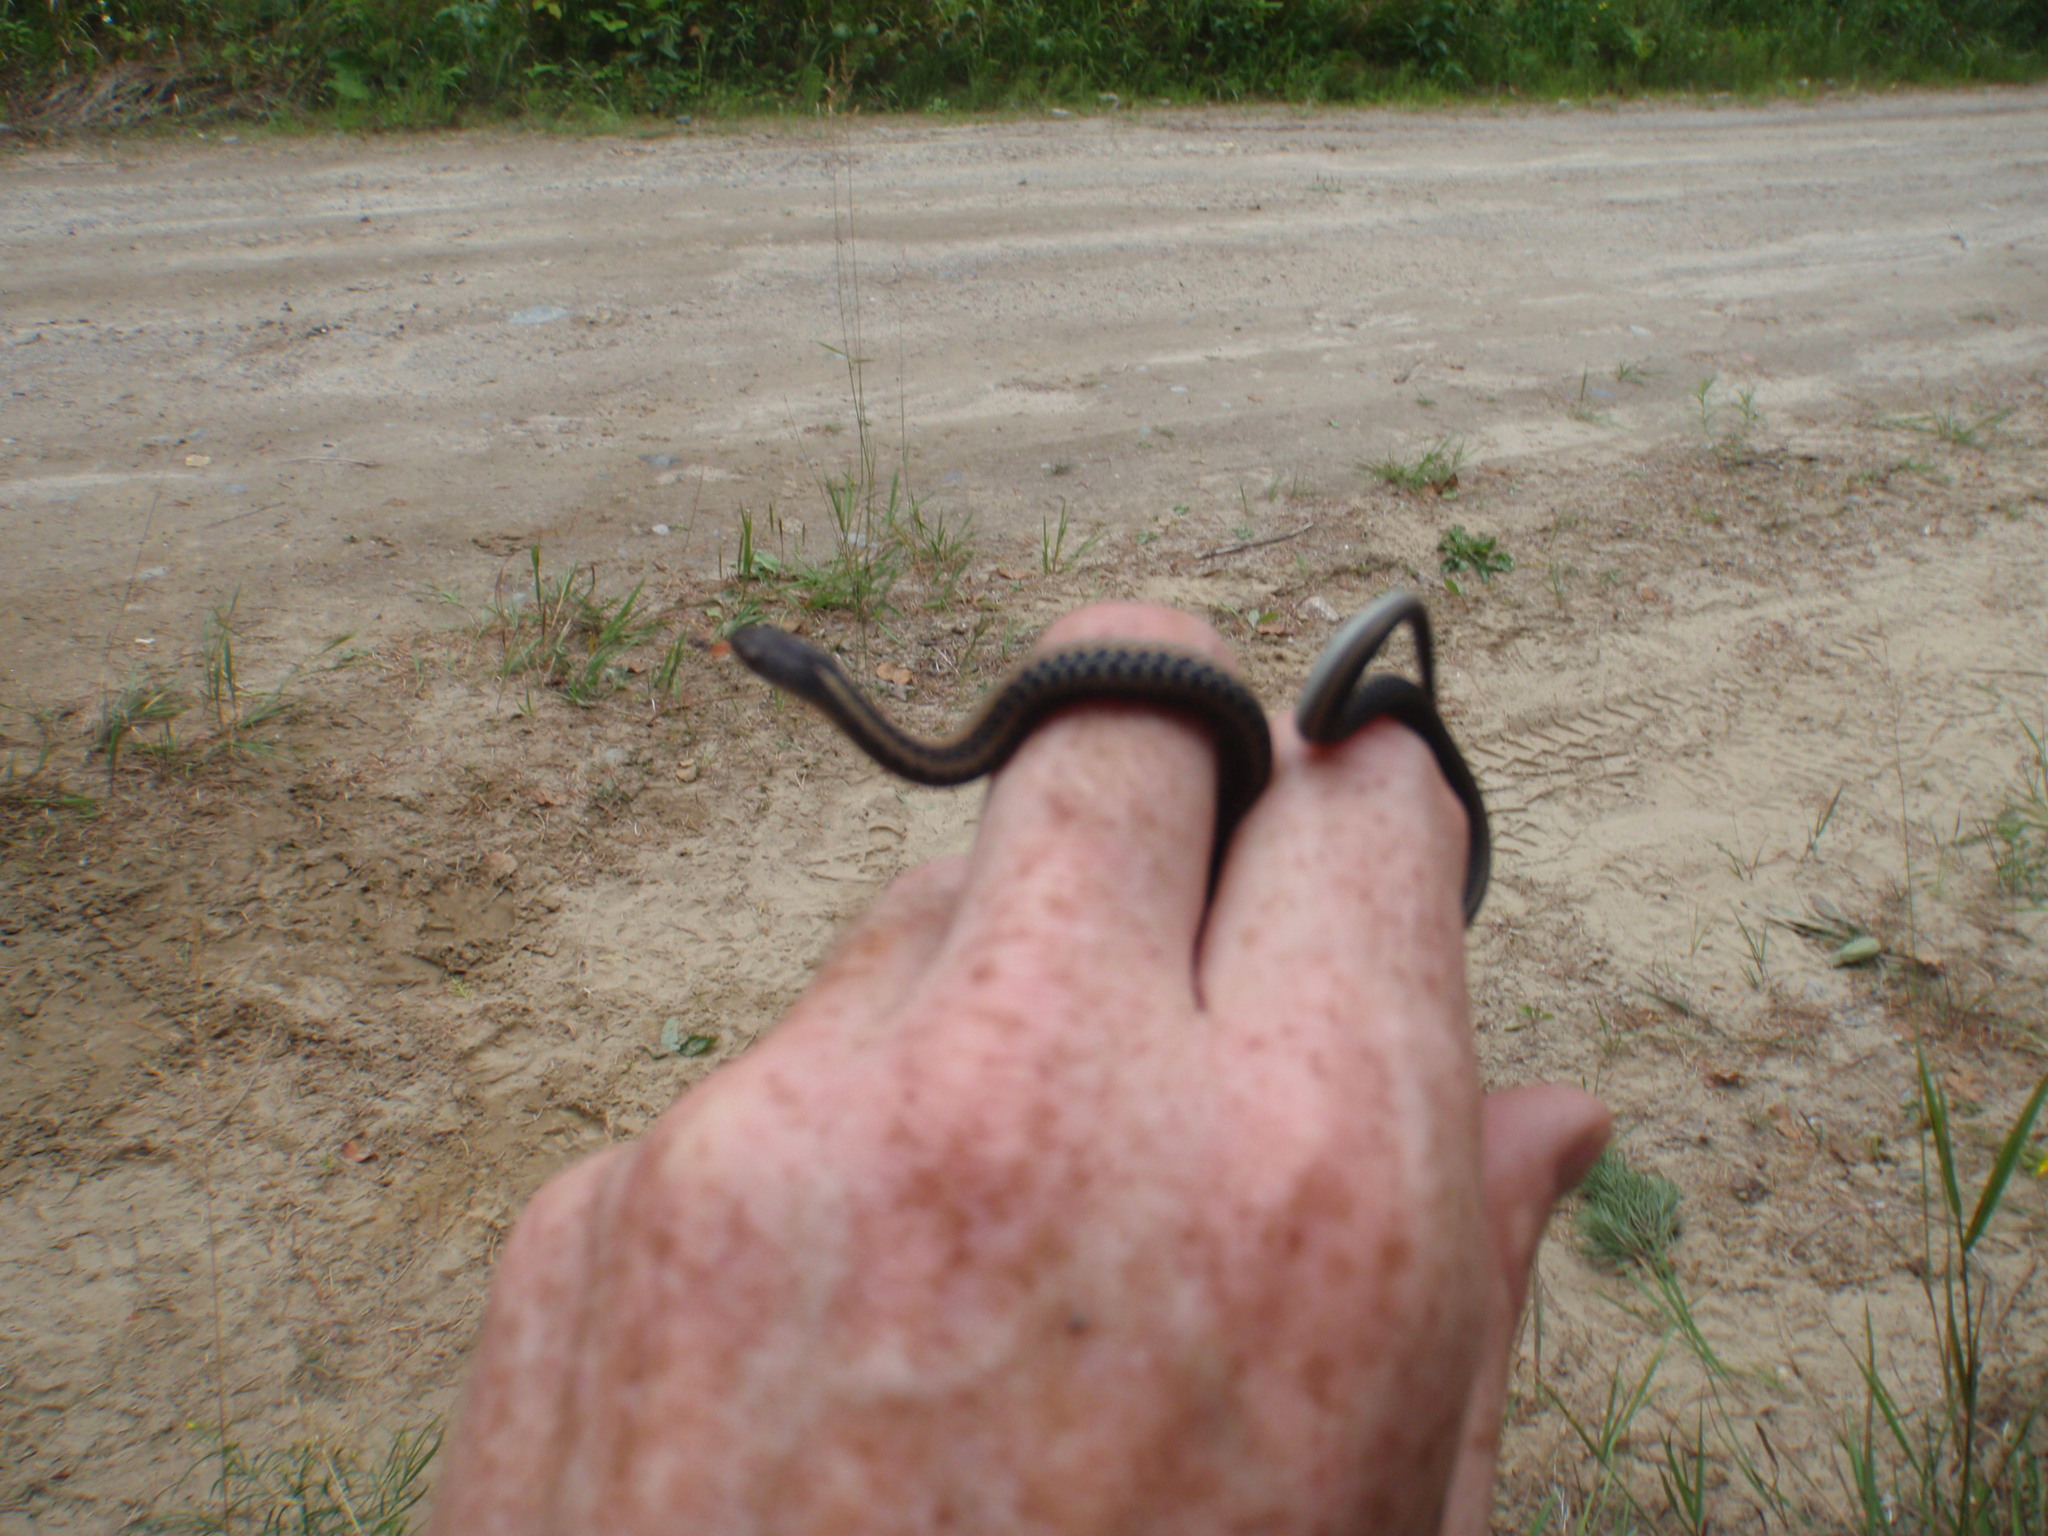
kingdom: Animalia
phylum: Chordata
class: Squamata
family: Colubridae
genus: Thamnophis
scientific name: Thamnophis sirtalis
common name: Common garter snake
